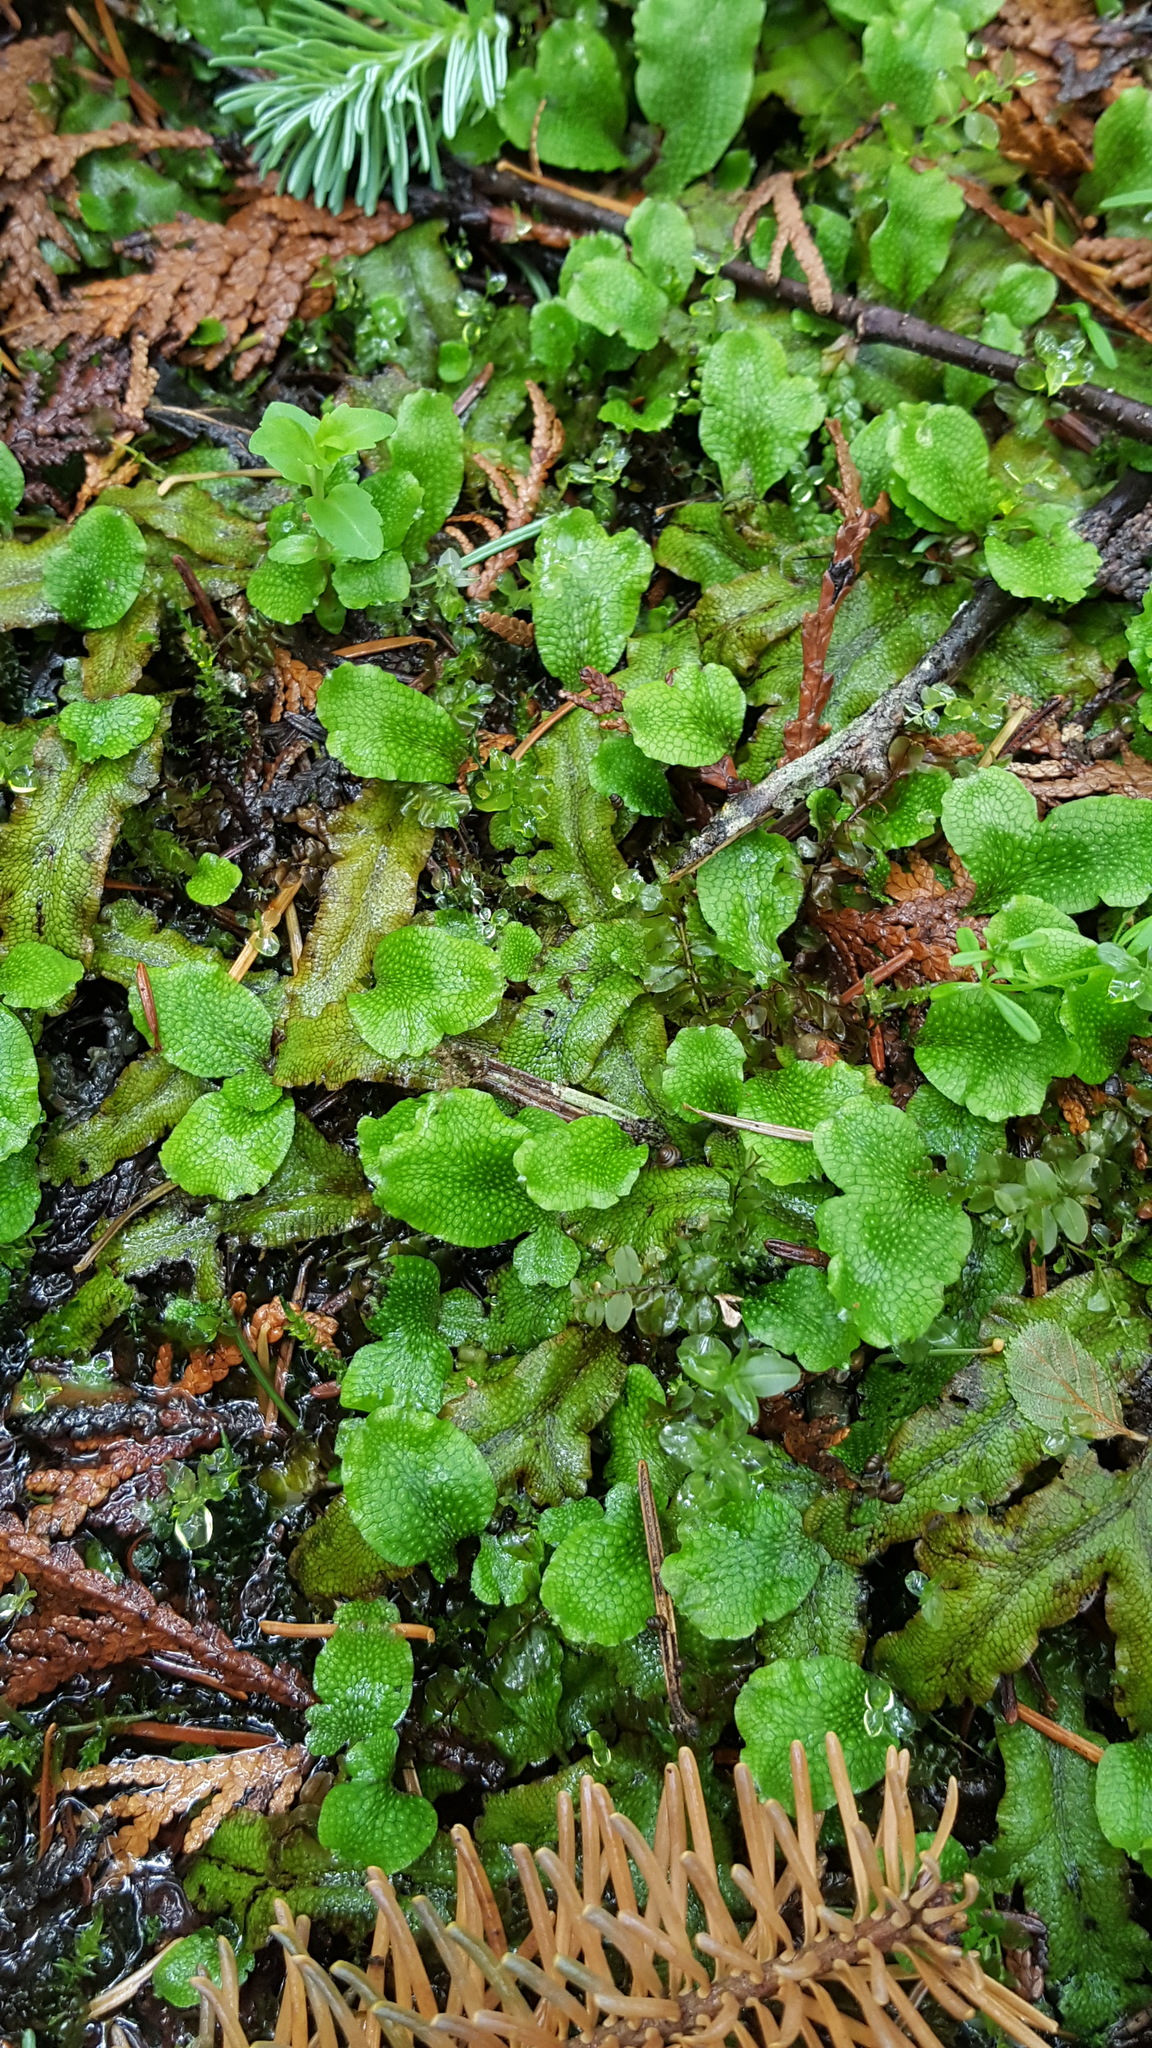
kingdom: Plantae
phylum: Marchantiophyta
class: Marchantiopsida
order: Marchantiales
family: Conocephalaceae
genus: Conocephalum
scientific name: Conocephalum salebrosum
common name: Cat-tongue liverwort
